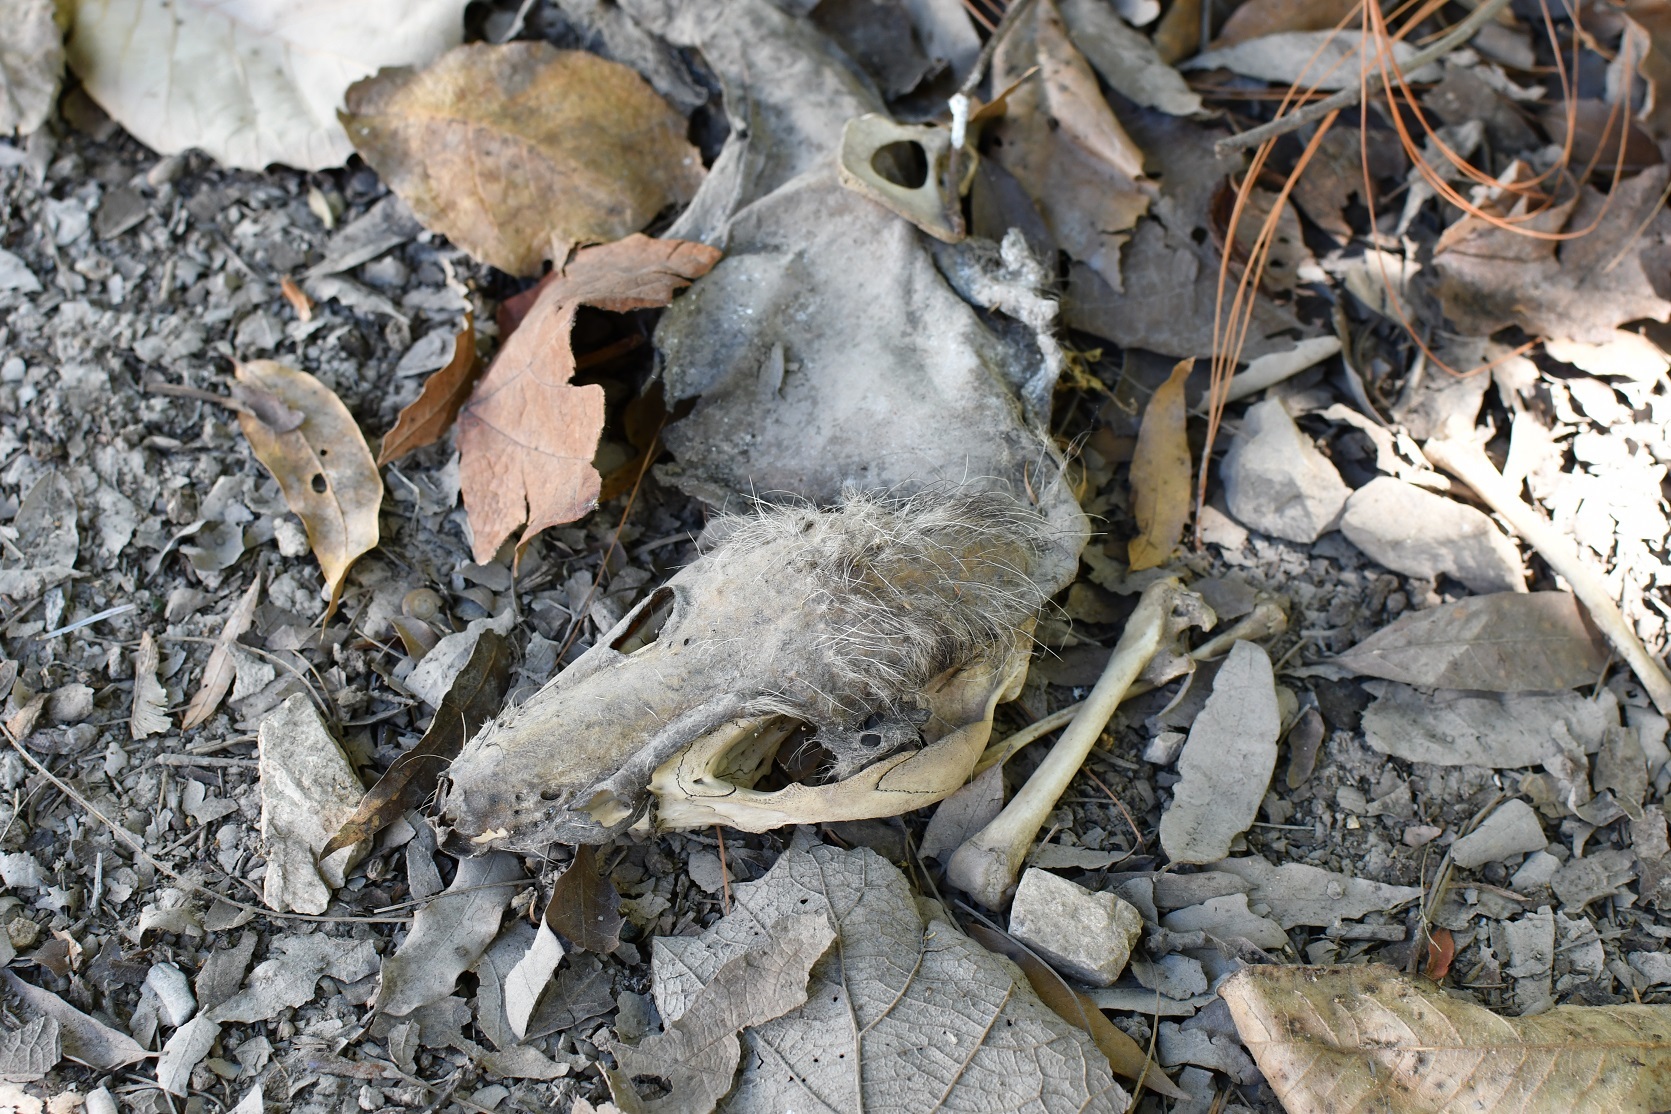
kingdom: Animalia
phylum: Chordata
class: Mammalia
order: Didelphimorphia
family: Didelphidae
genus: Didelphis
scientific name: Didelphis
